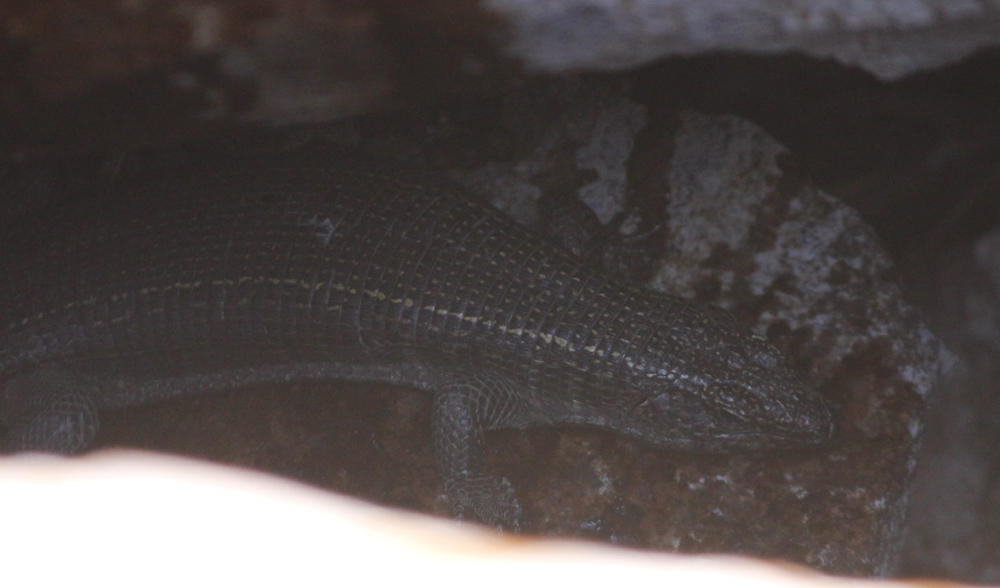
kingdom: Animalia
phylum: Chordata
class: Squamata
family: Gerrhosauridae
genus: Matobosaurus
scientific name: Matobosaurus validus
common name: Common giant plated lizard
